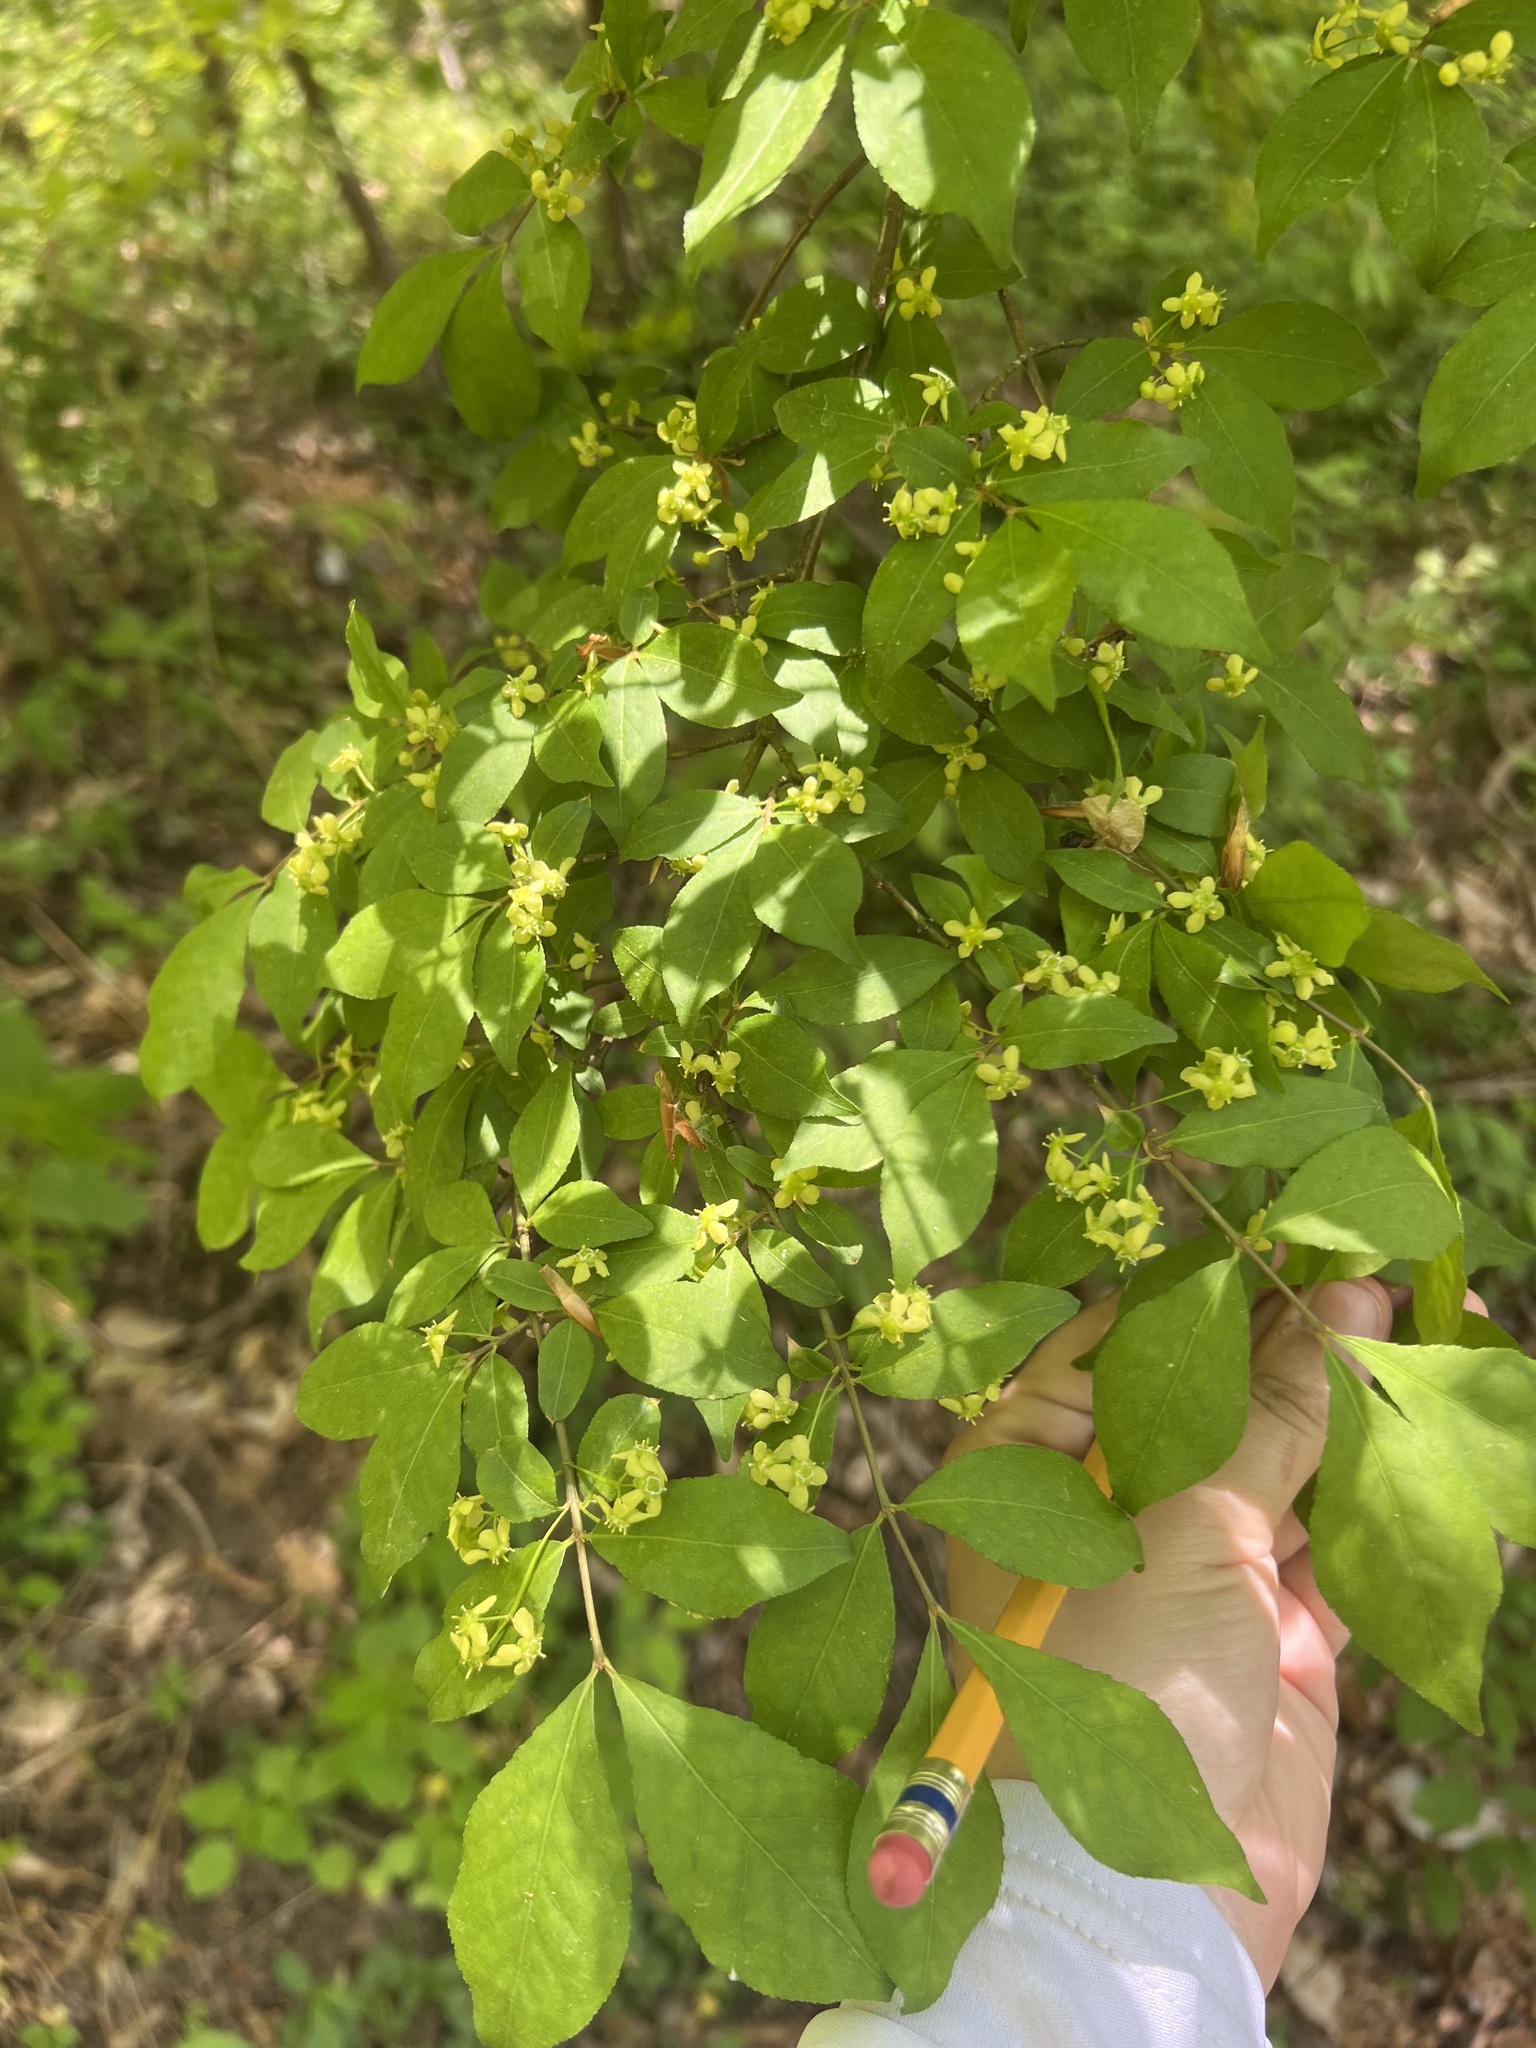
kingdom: Plantae
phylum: Tracheophyta
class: Magnoliopsida
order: Celastrales
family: Celastraceae
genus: Euonymus
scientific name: Euonymus alatus
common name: Winged euonymus
